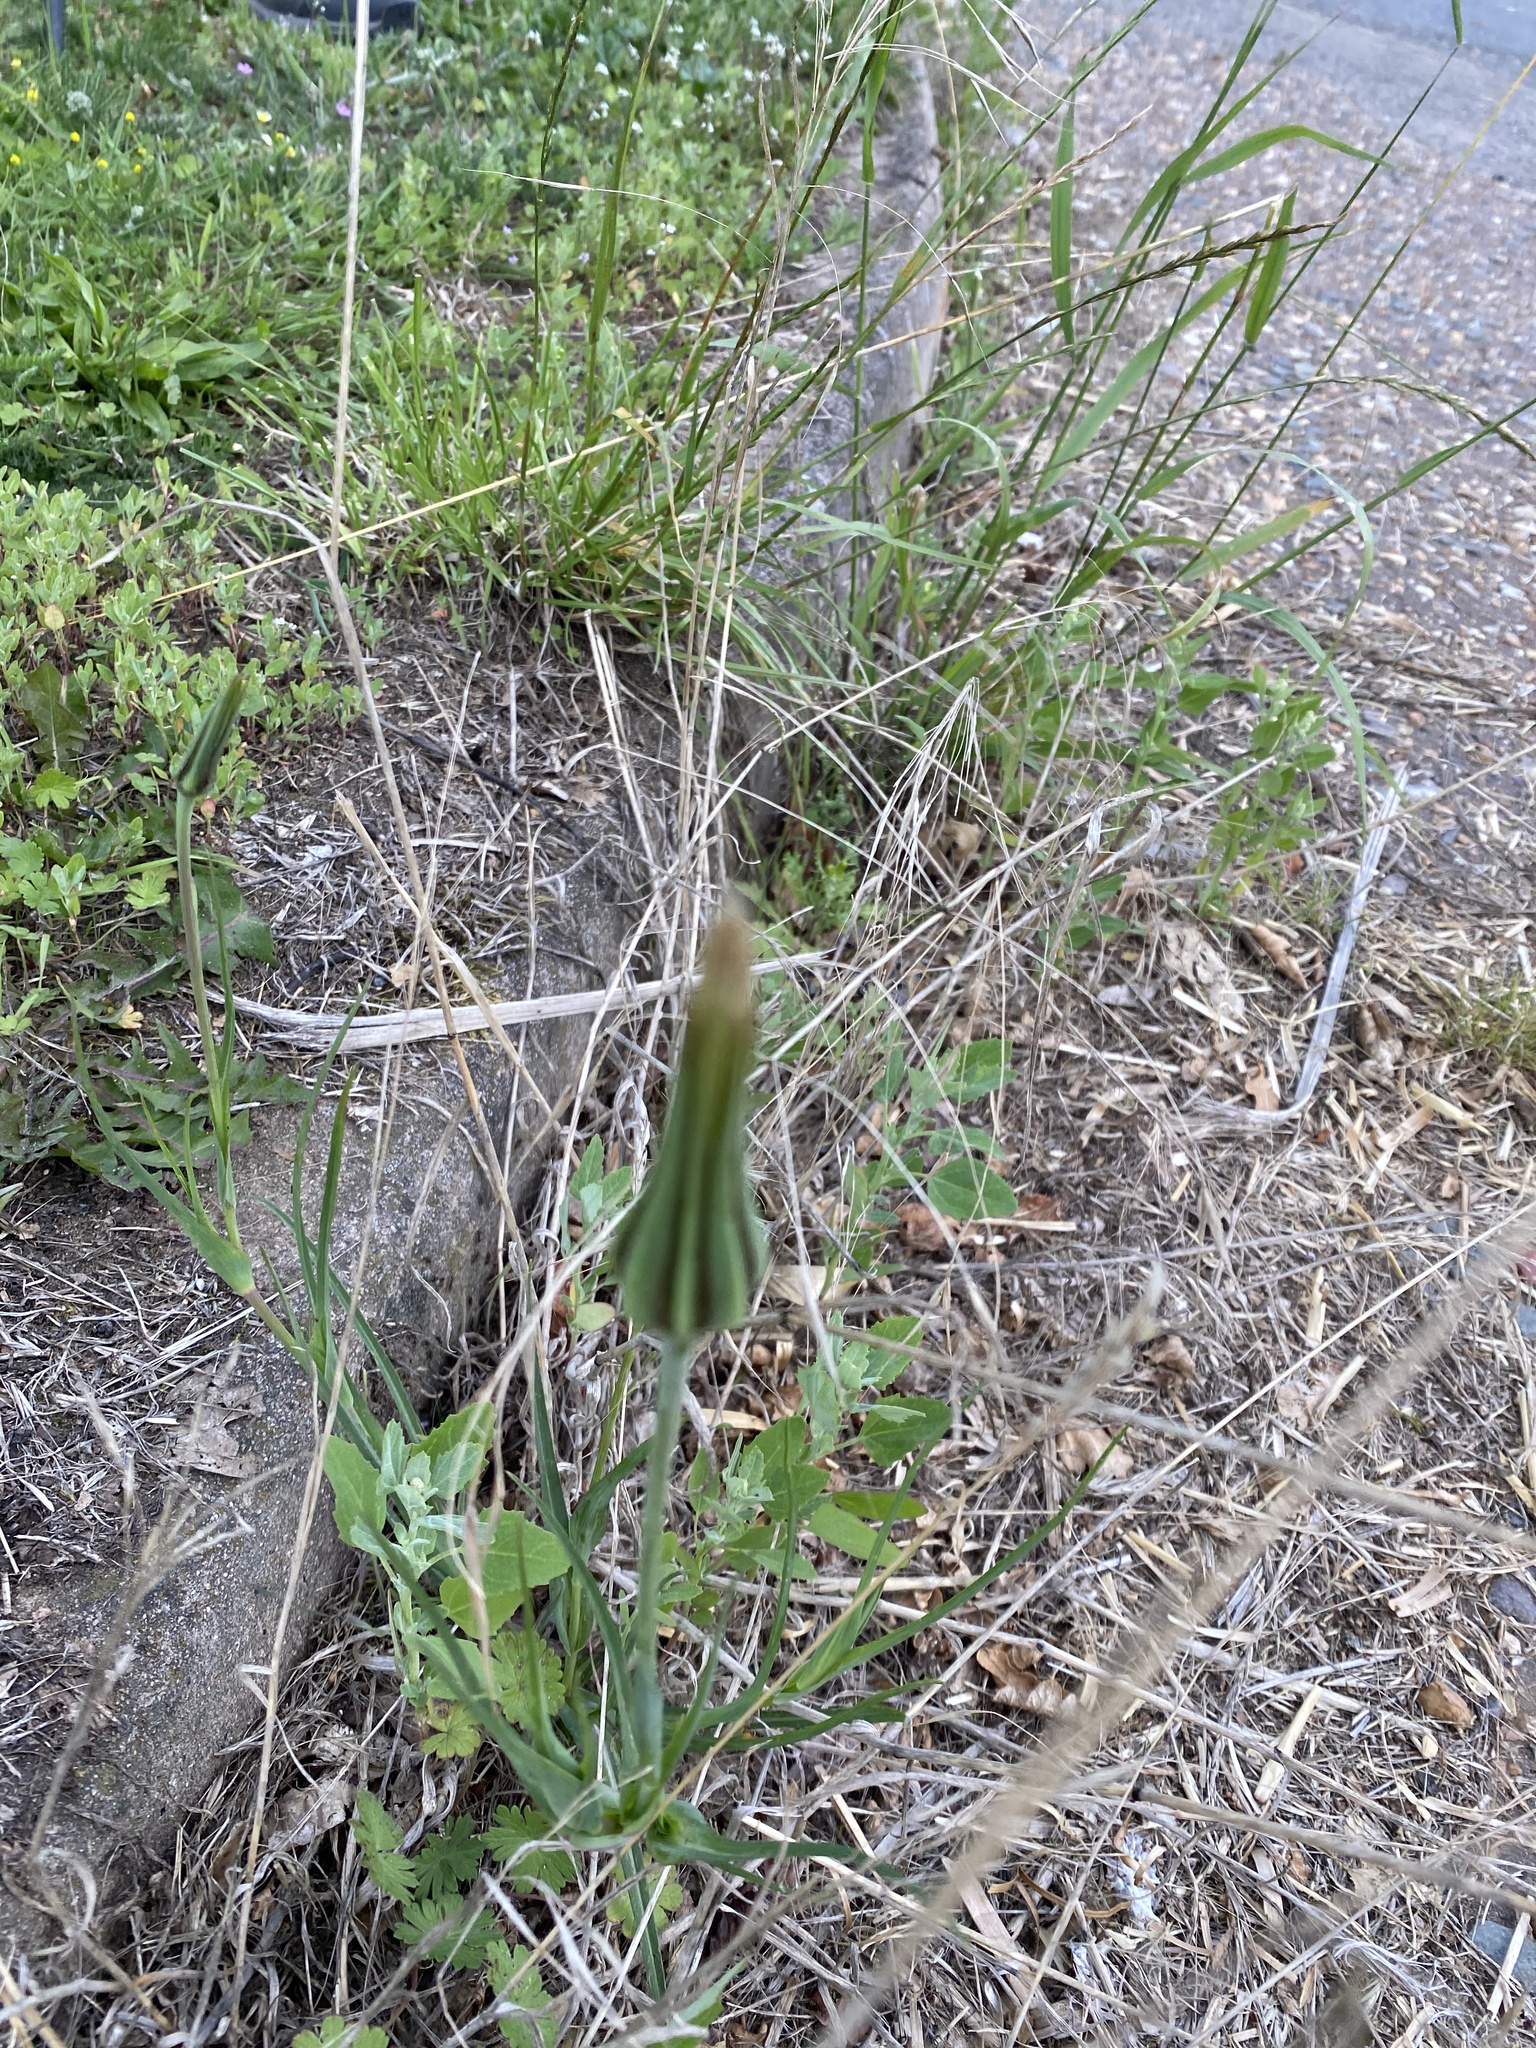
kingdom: Plantae
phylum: Tracheophyta
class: Magnoliopsida
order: Asterales
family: Asteraceae
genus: Tragopogon
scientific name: Tragopogon pratensis
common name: Goat's-beard
